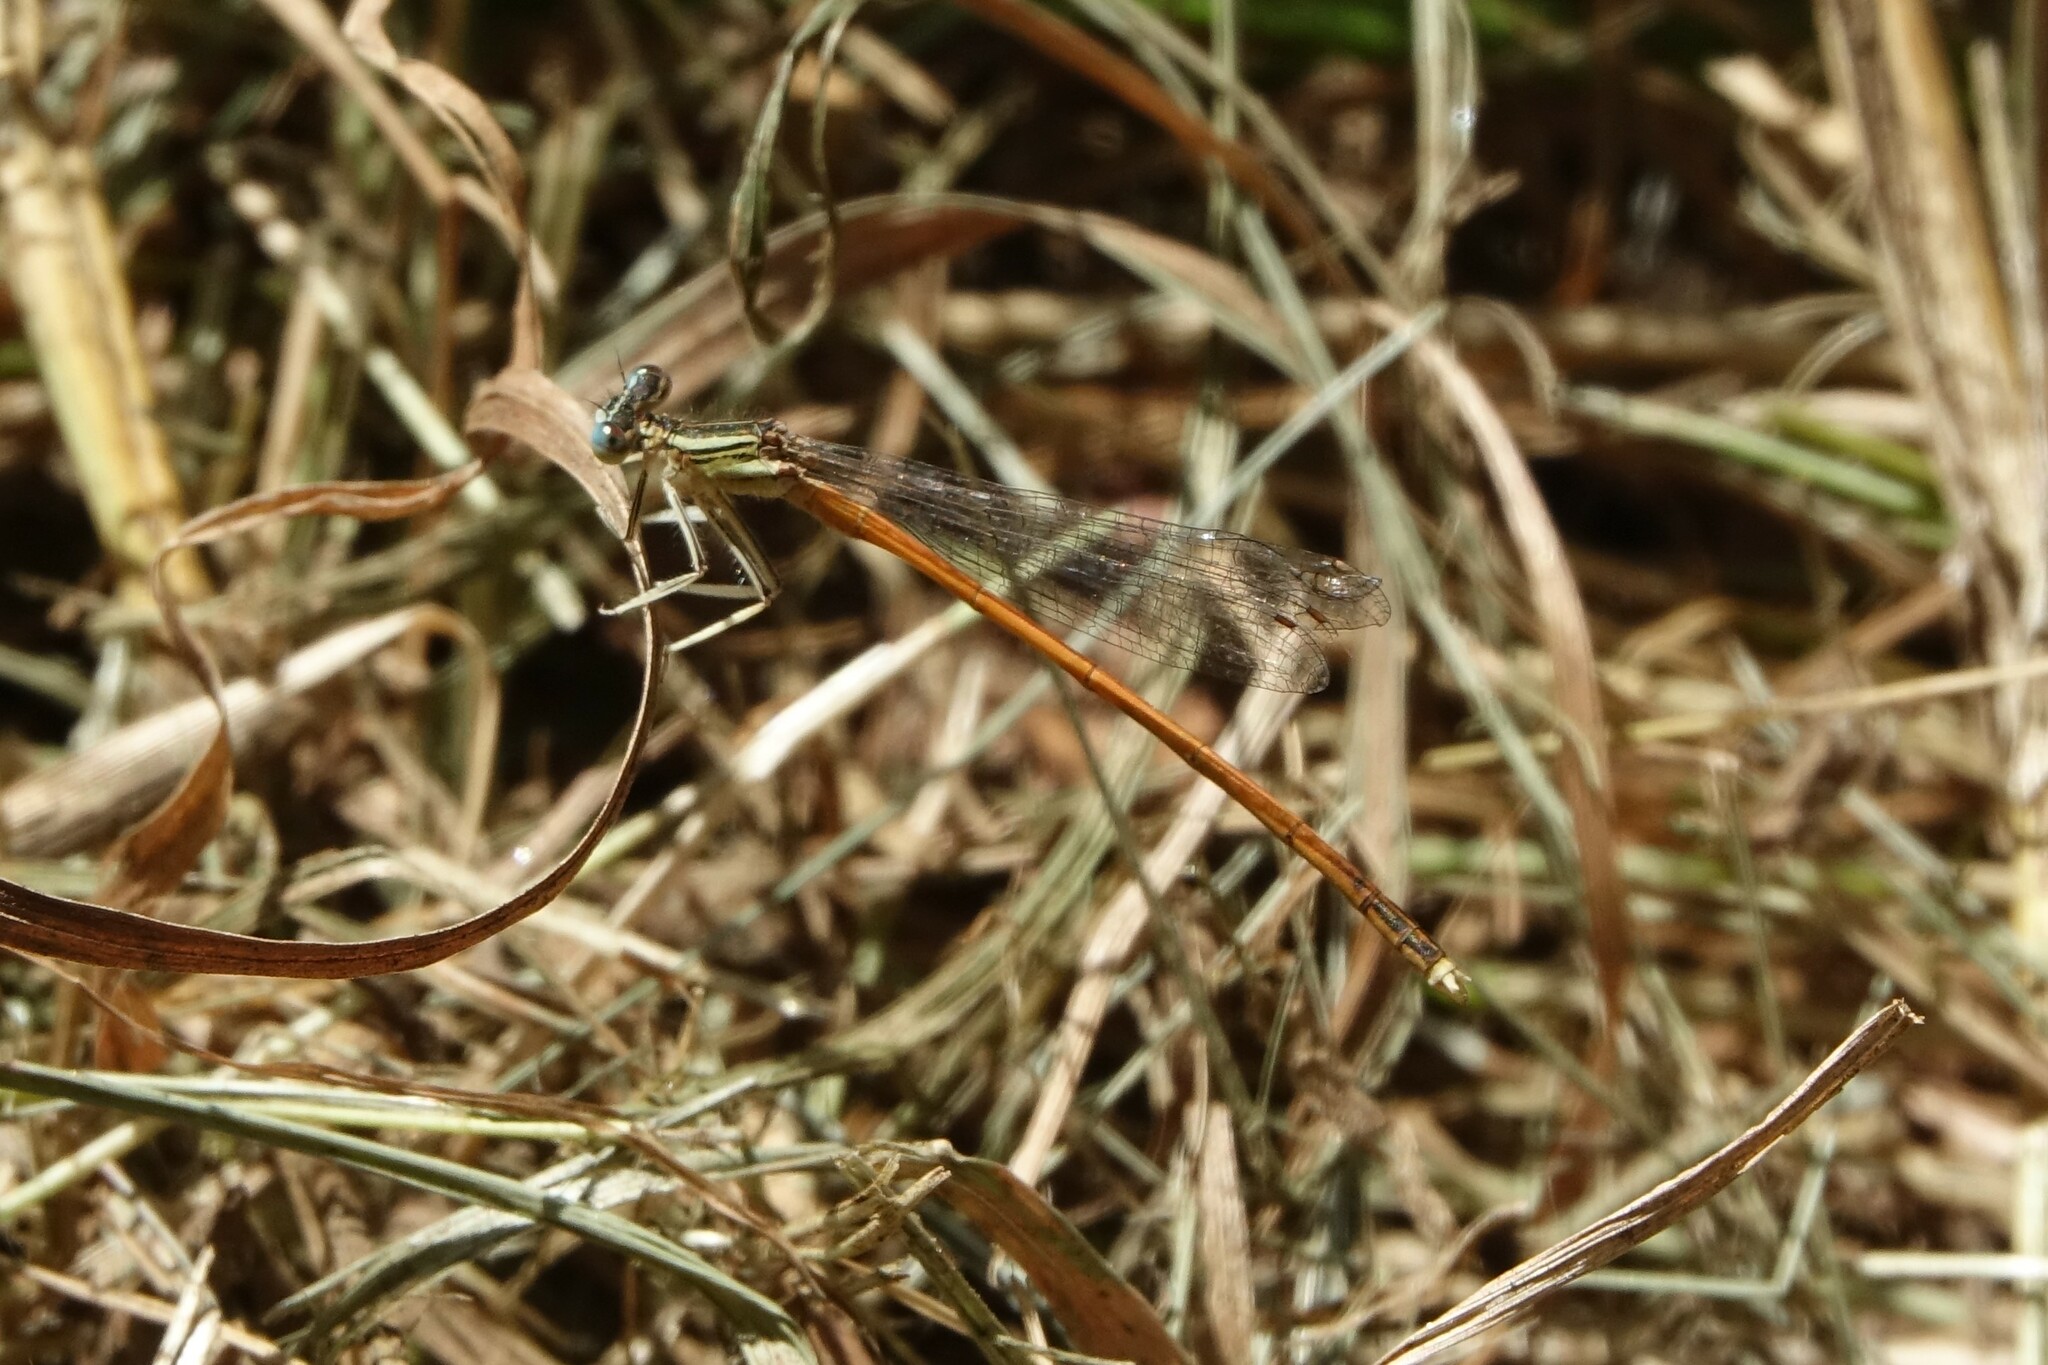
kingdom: Animalia
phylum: Arthropoda
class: Insecta
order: Odonata
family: Platycnemididae
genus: Platycnemis
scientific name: Platycnemis acutipennis
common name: Orange featherleg
